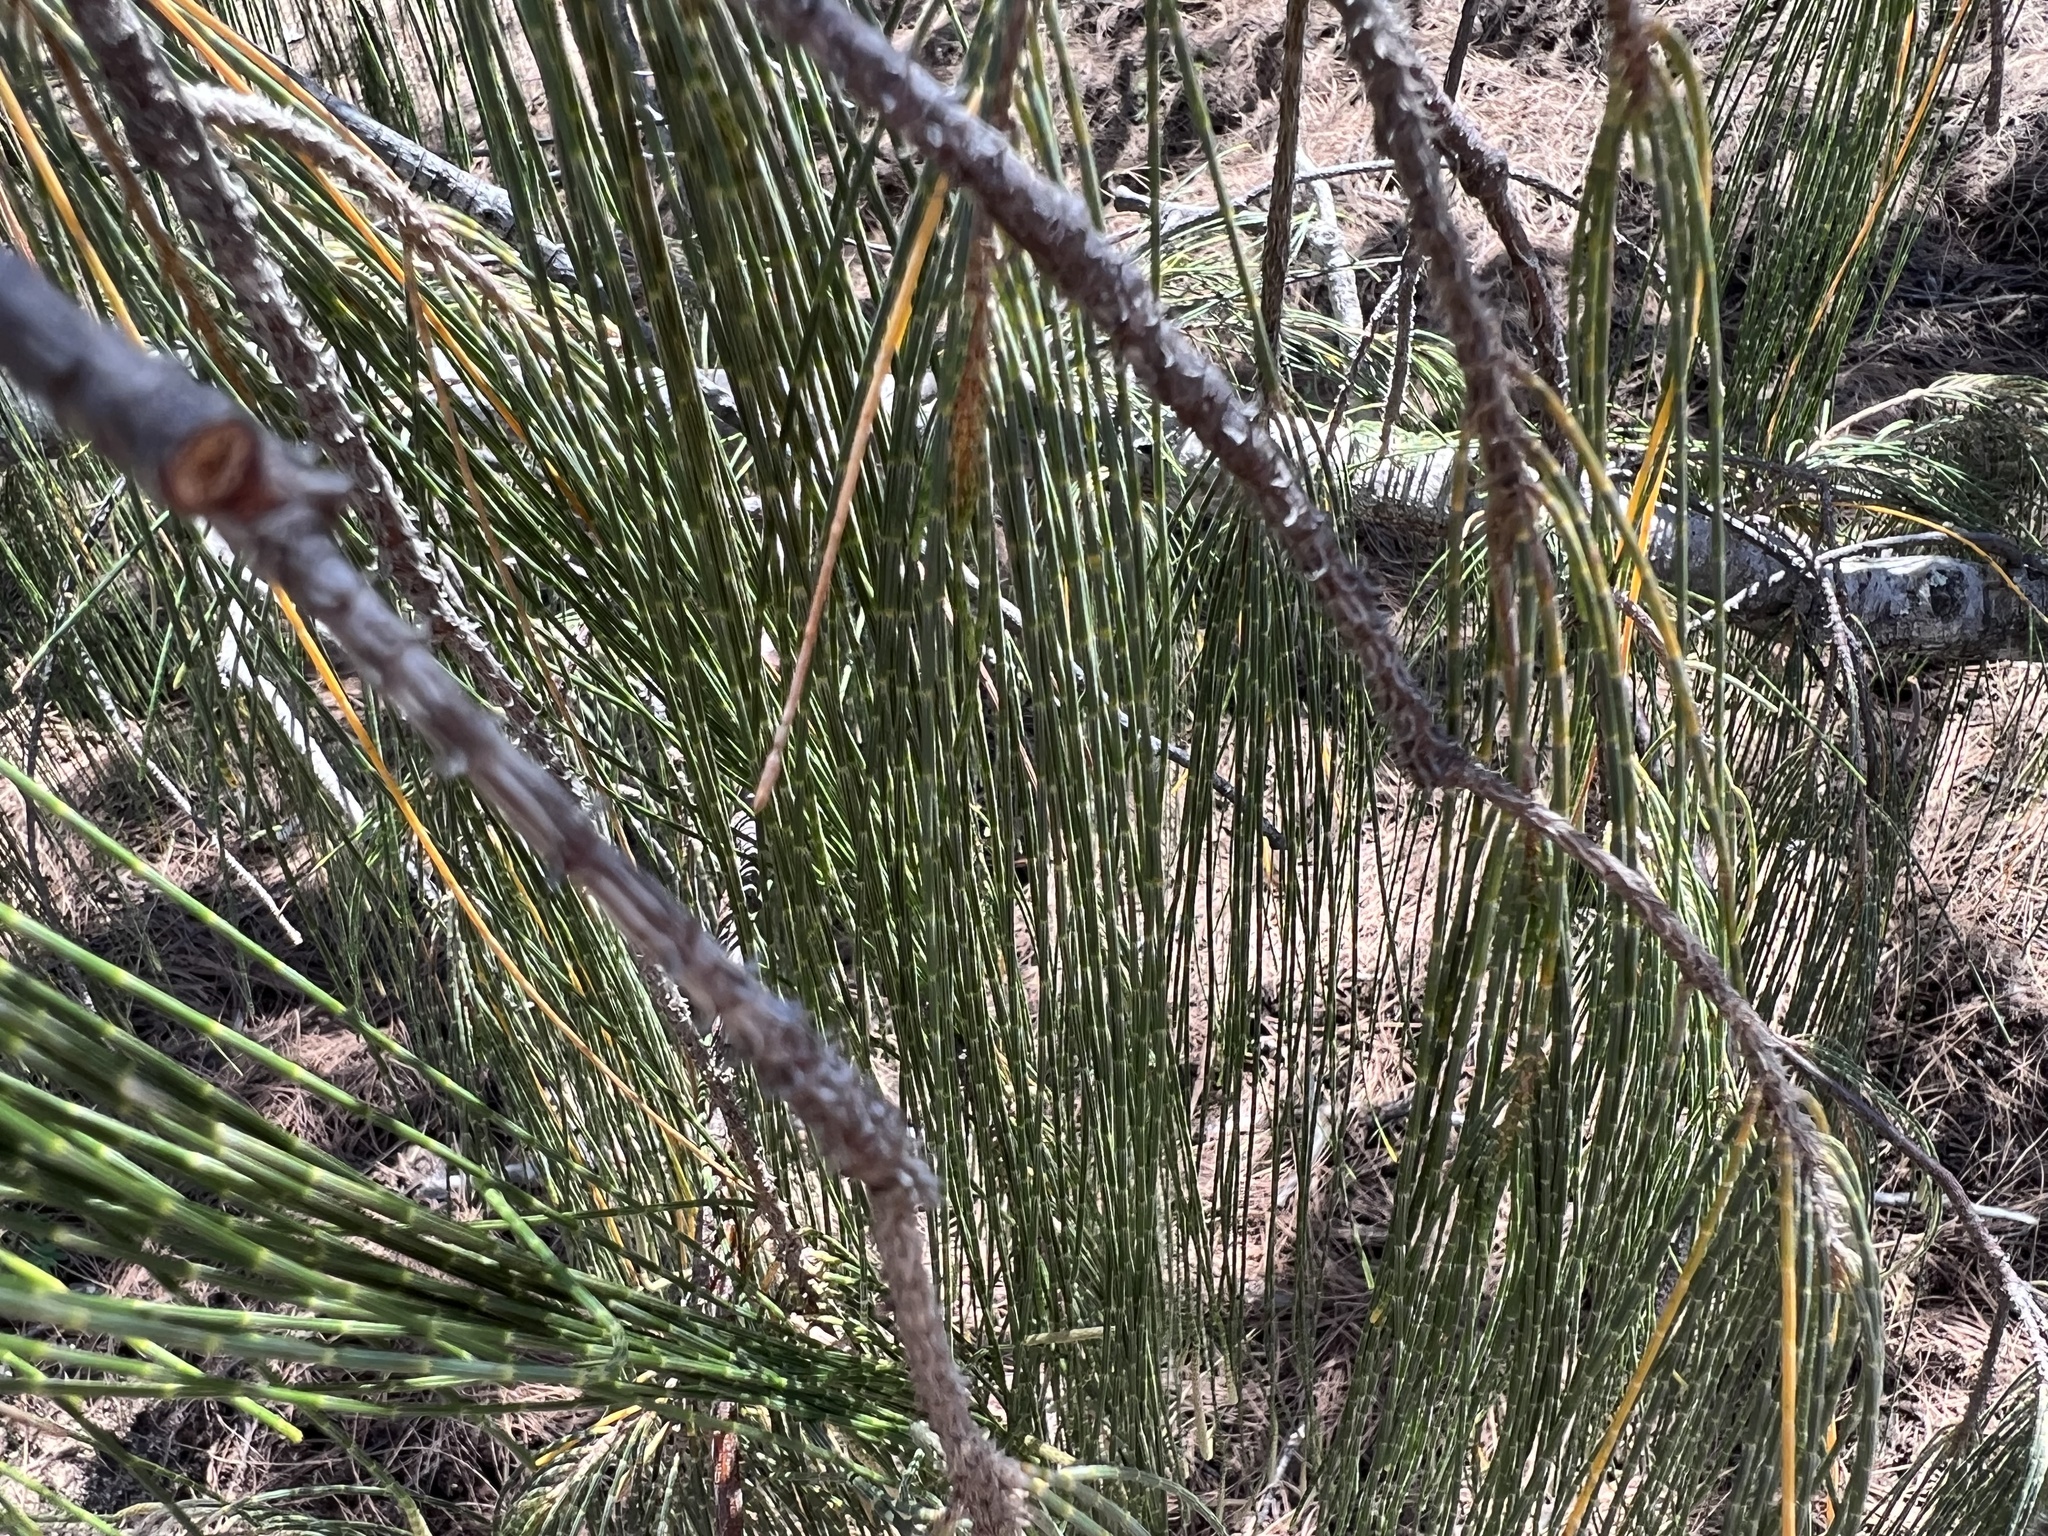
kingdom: Plantae
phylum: Tracheophyta
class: Magnoliopsida
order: Fagales
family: Casuarinaceae
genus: Casuarina
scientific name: Casuarina equisetifolia
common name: Beach sheoak
